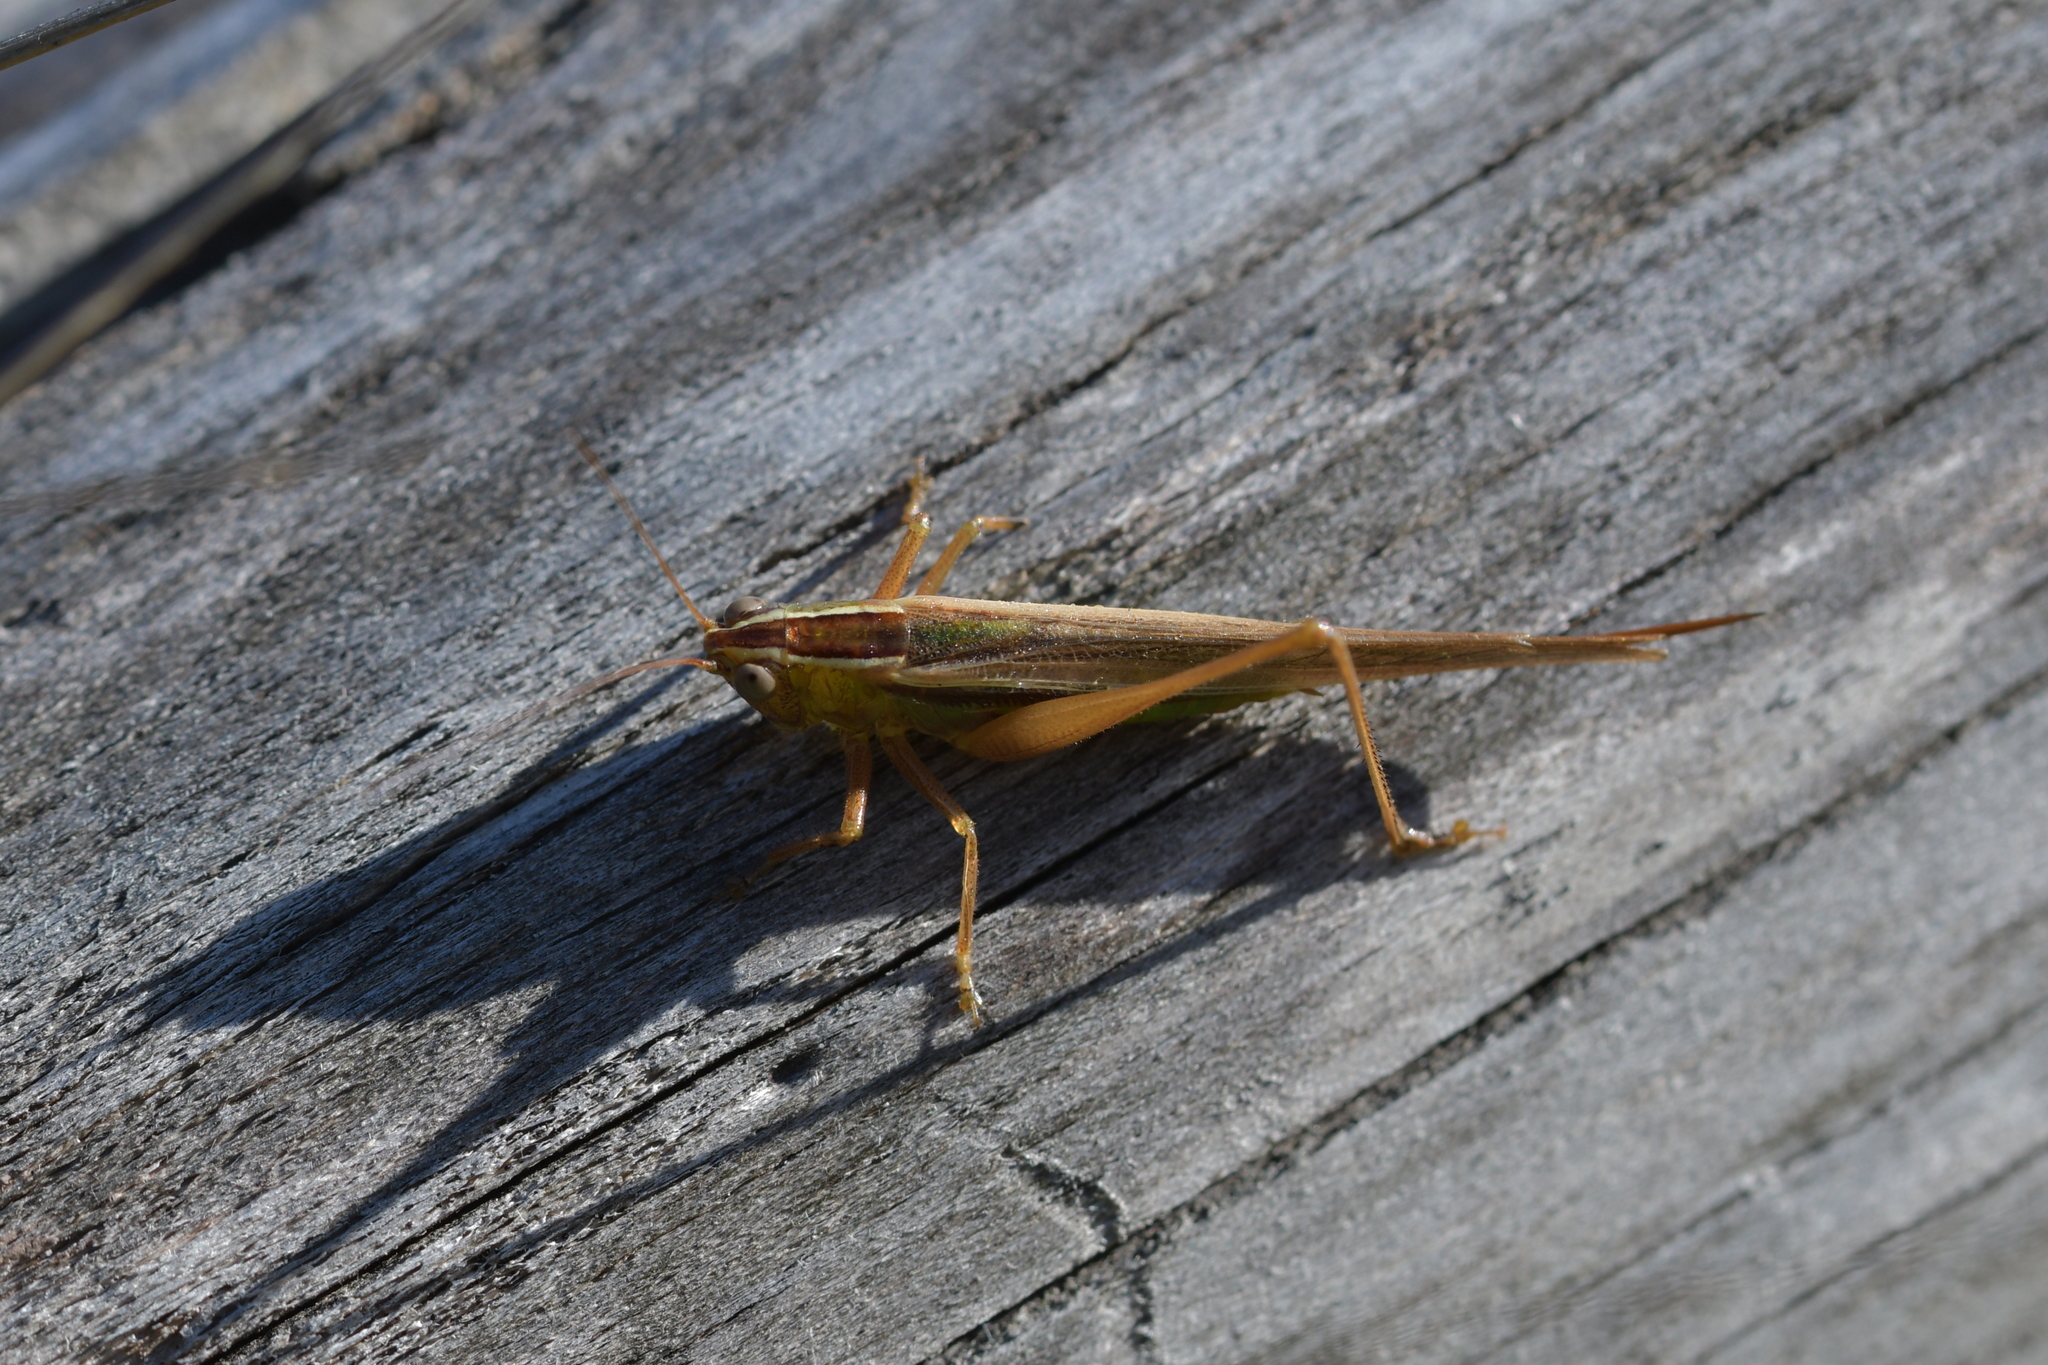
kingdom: Animalia
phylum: Arthropoda
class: Insecta
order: Orthoptera
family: Tettigoniidae
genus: Conocephalus
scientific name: Conocephalus albescens
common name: Whitish meadow katydid
